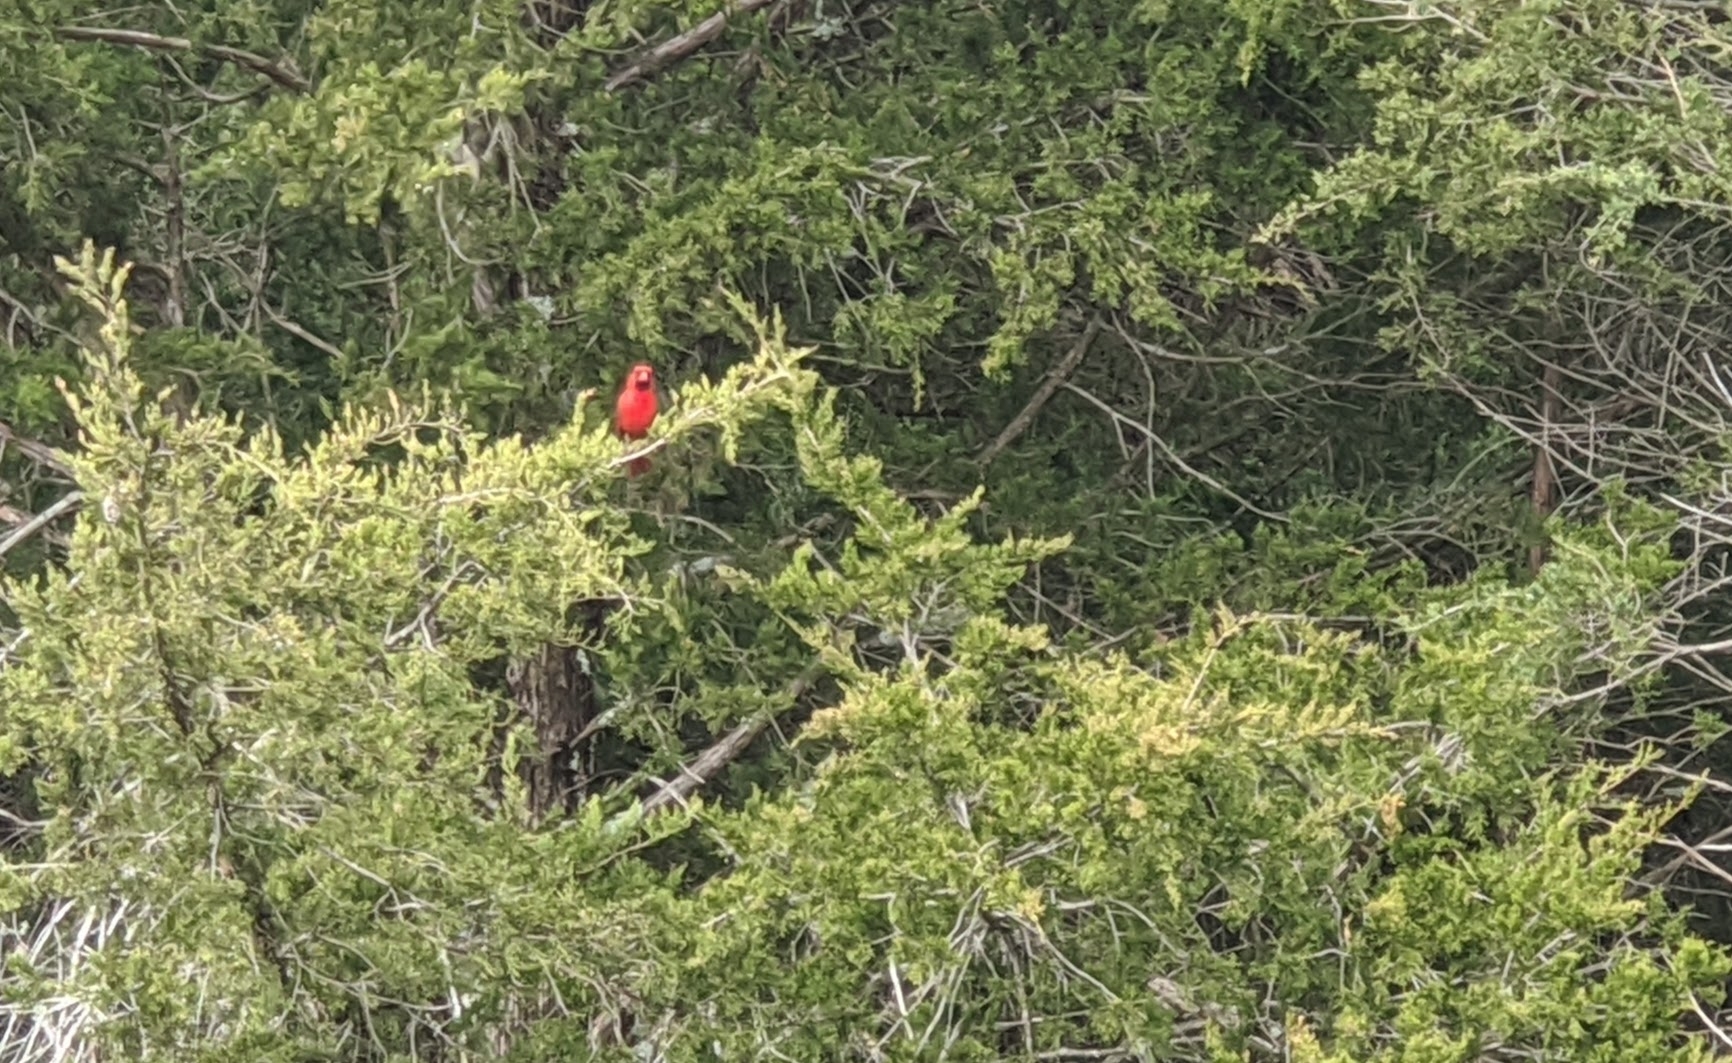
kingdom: Animalia
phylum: Chordata
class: Aves
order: Passeriformes
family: Cardinalidae
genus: Cardinalis
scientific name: Cardinalis cardinalis
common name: Northern cardinal
